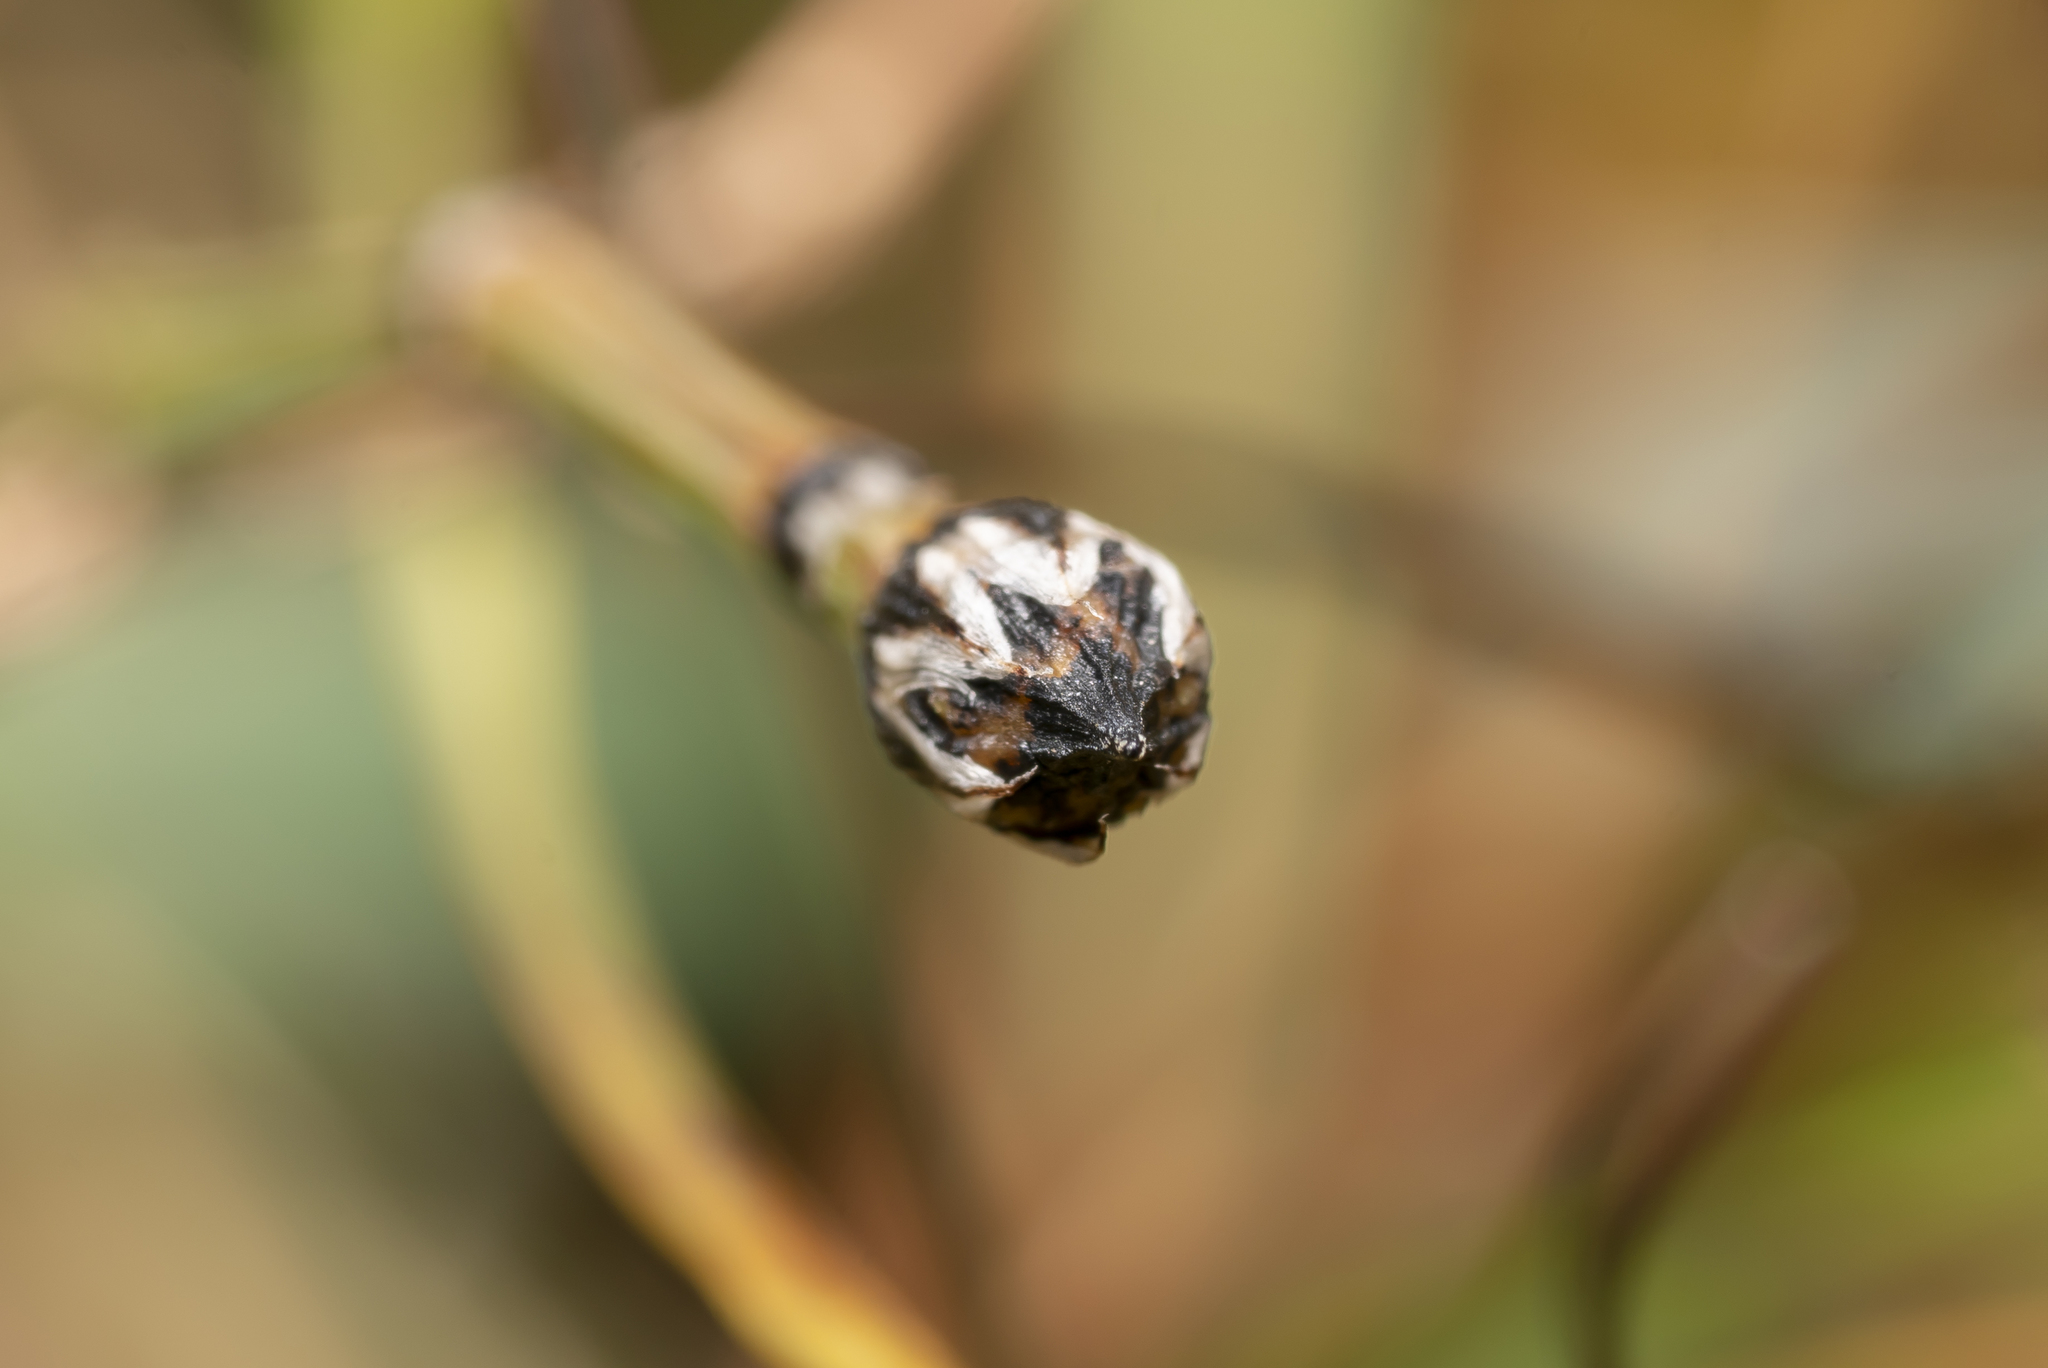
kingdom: Plantae
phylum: Tracheophyta
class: Polypodiopsida
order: Equisetales
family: Equisetaceae
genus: Equisetum
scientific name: Equisetum variegatum
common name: Variegated horsetail
